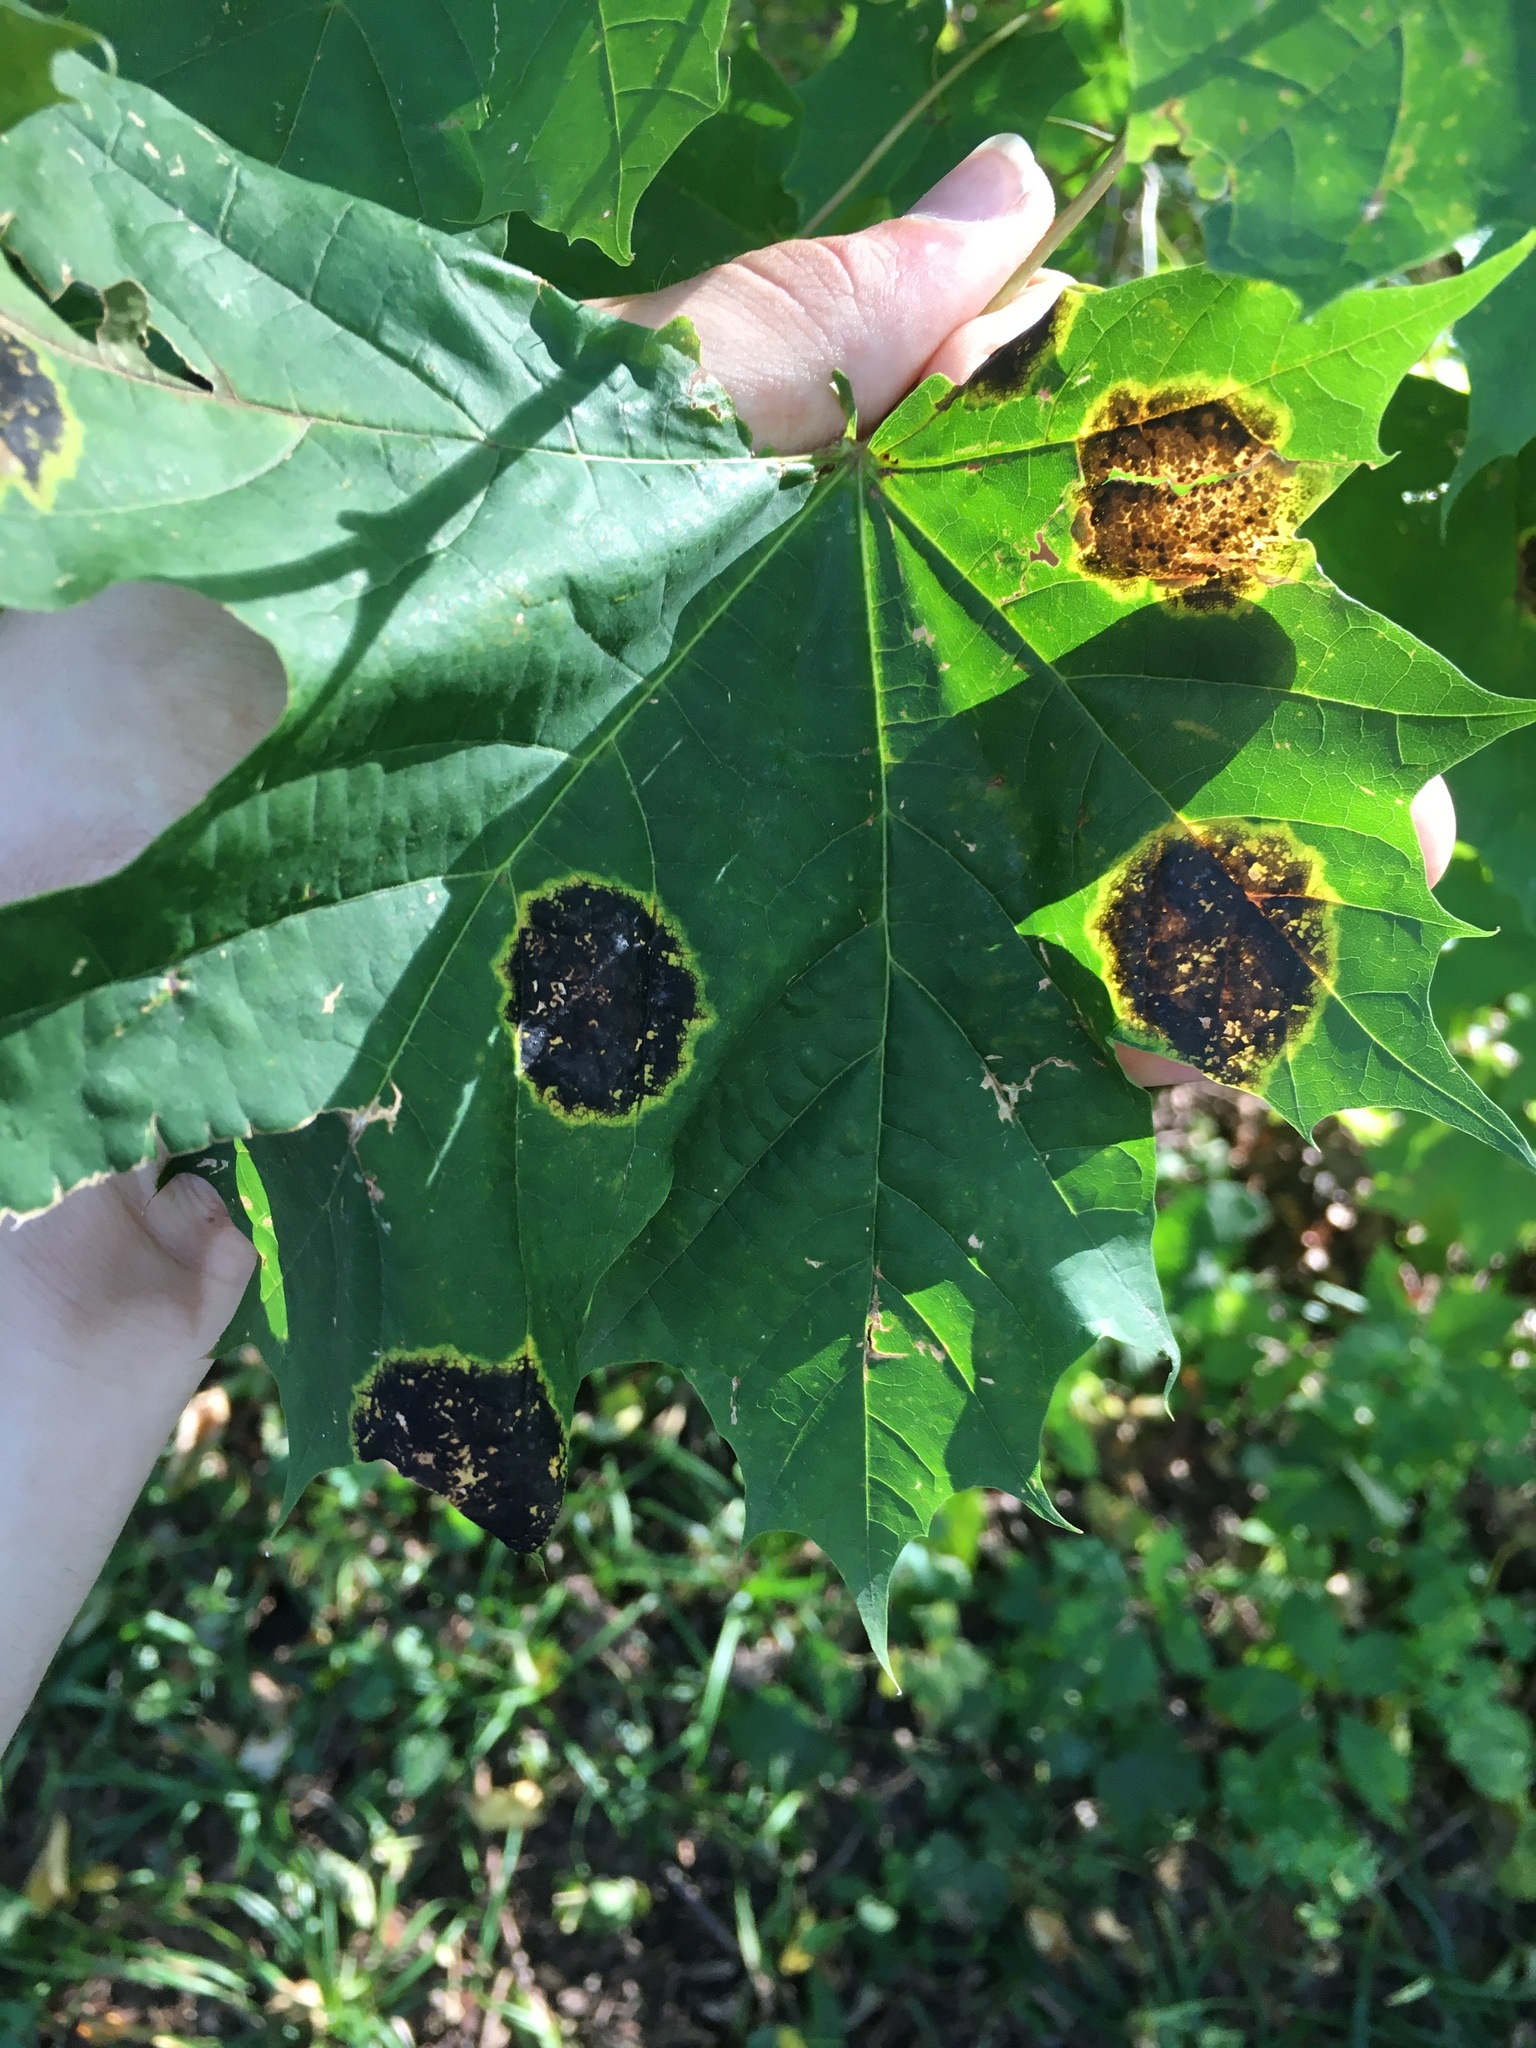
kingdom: Fungi
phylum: Ascomycota
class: Leotiomycetes
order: Rhytismatales
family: Rhytismataceae
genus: Rhytisma
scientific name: Rhytisma acerinum
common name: European tar spot
